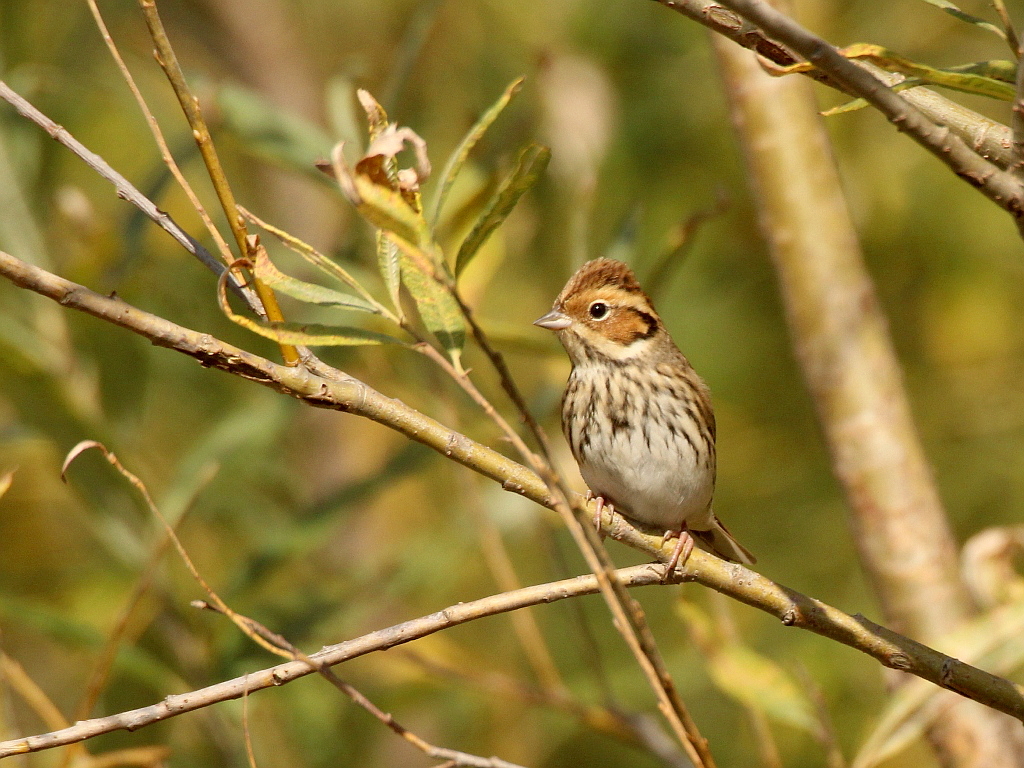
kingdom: Animalia
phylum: Chordata
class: Aves
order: Passeriformes
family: Emberizidae
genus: Emberiza
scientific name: Emberiza pusilla
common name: Little bunting
